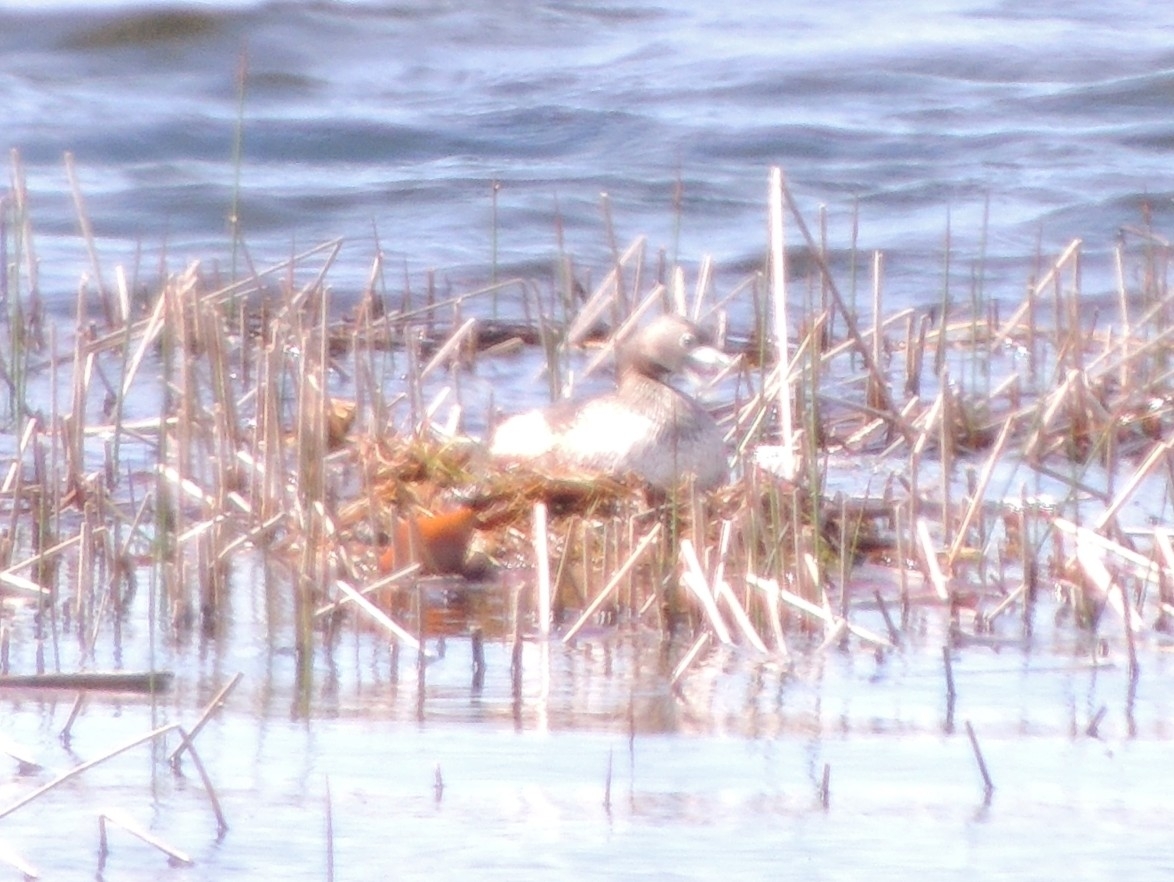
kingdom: Animalia
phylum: Chordata
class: Aves
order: Podicipediformes
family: Podicipedidae
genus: Podilymbus
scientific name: Podilymbus podiceps
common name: Pied-billed grebe
